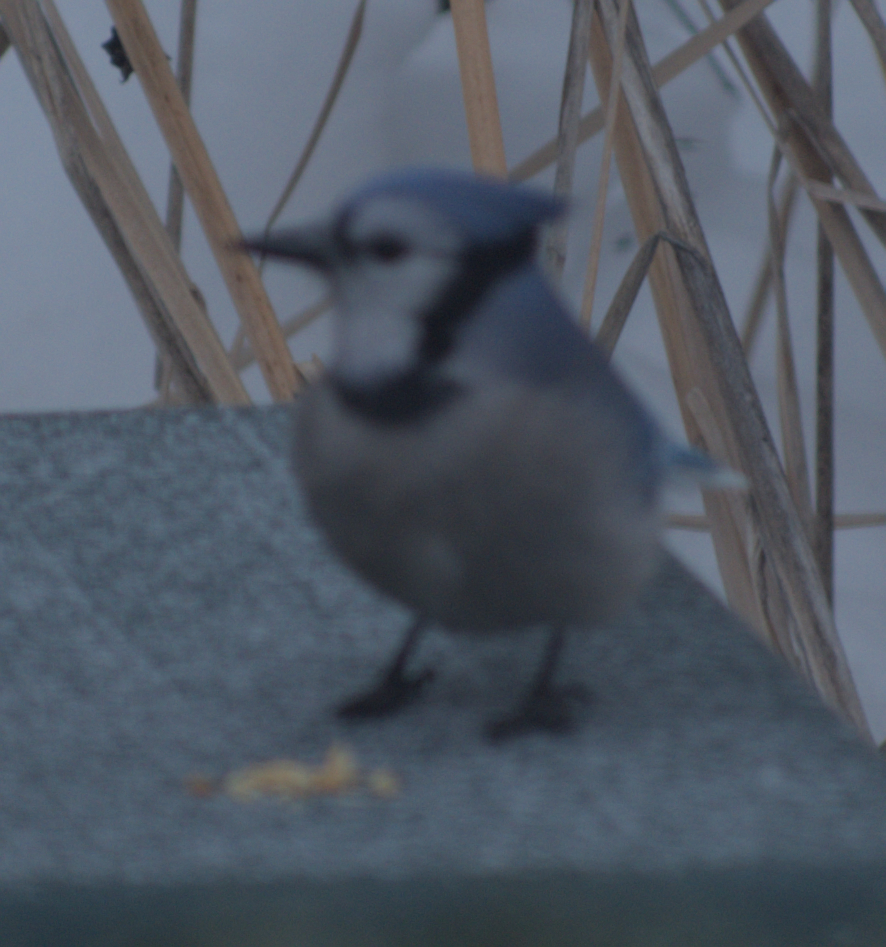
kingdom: Animalia
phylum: Chordata
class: Aves
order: Passeriformes
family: Corvidae
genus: Cyanocitta
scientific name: Cyanocitta cristata
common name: Blue jay
